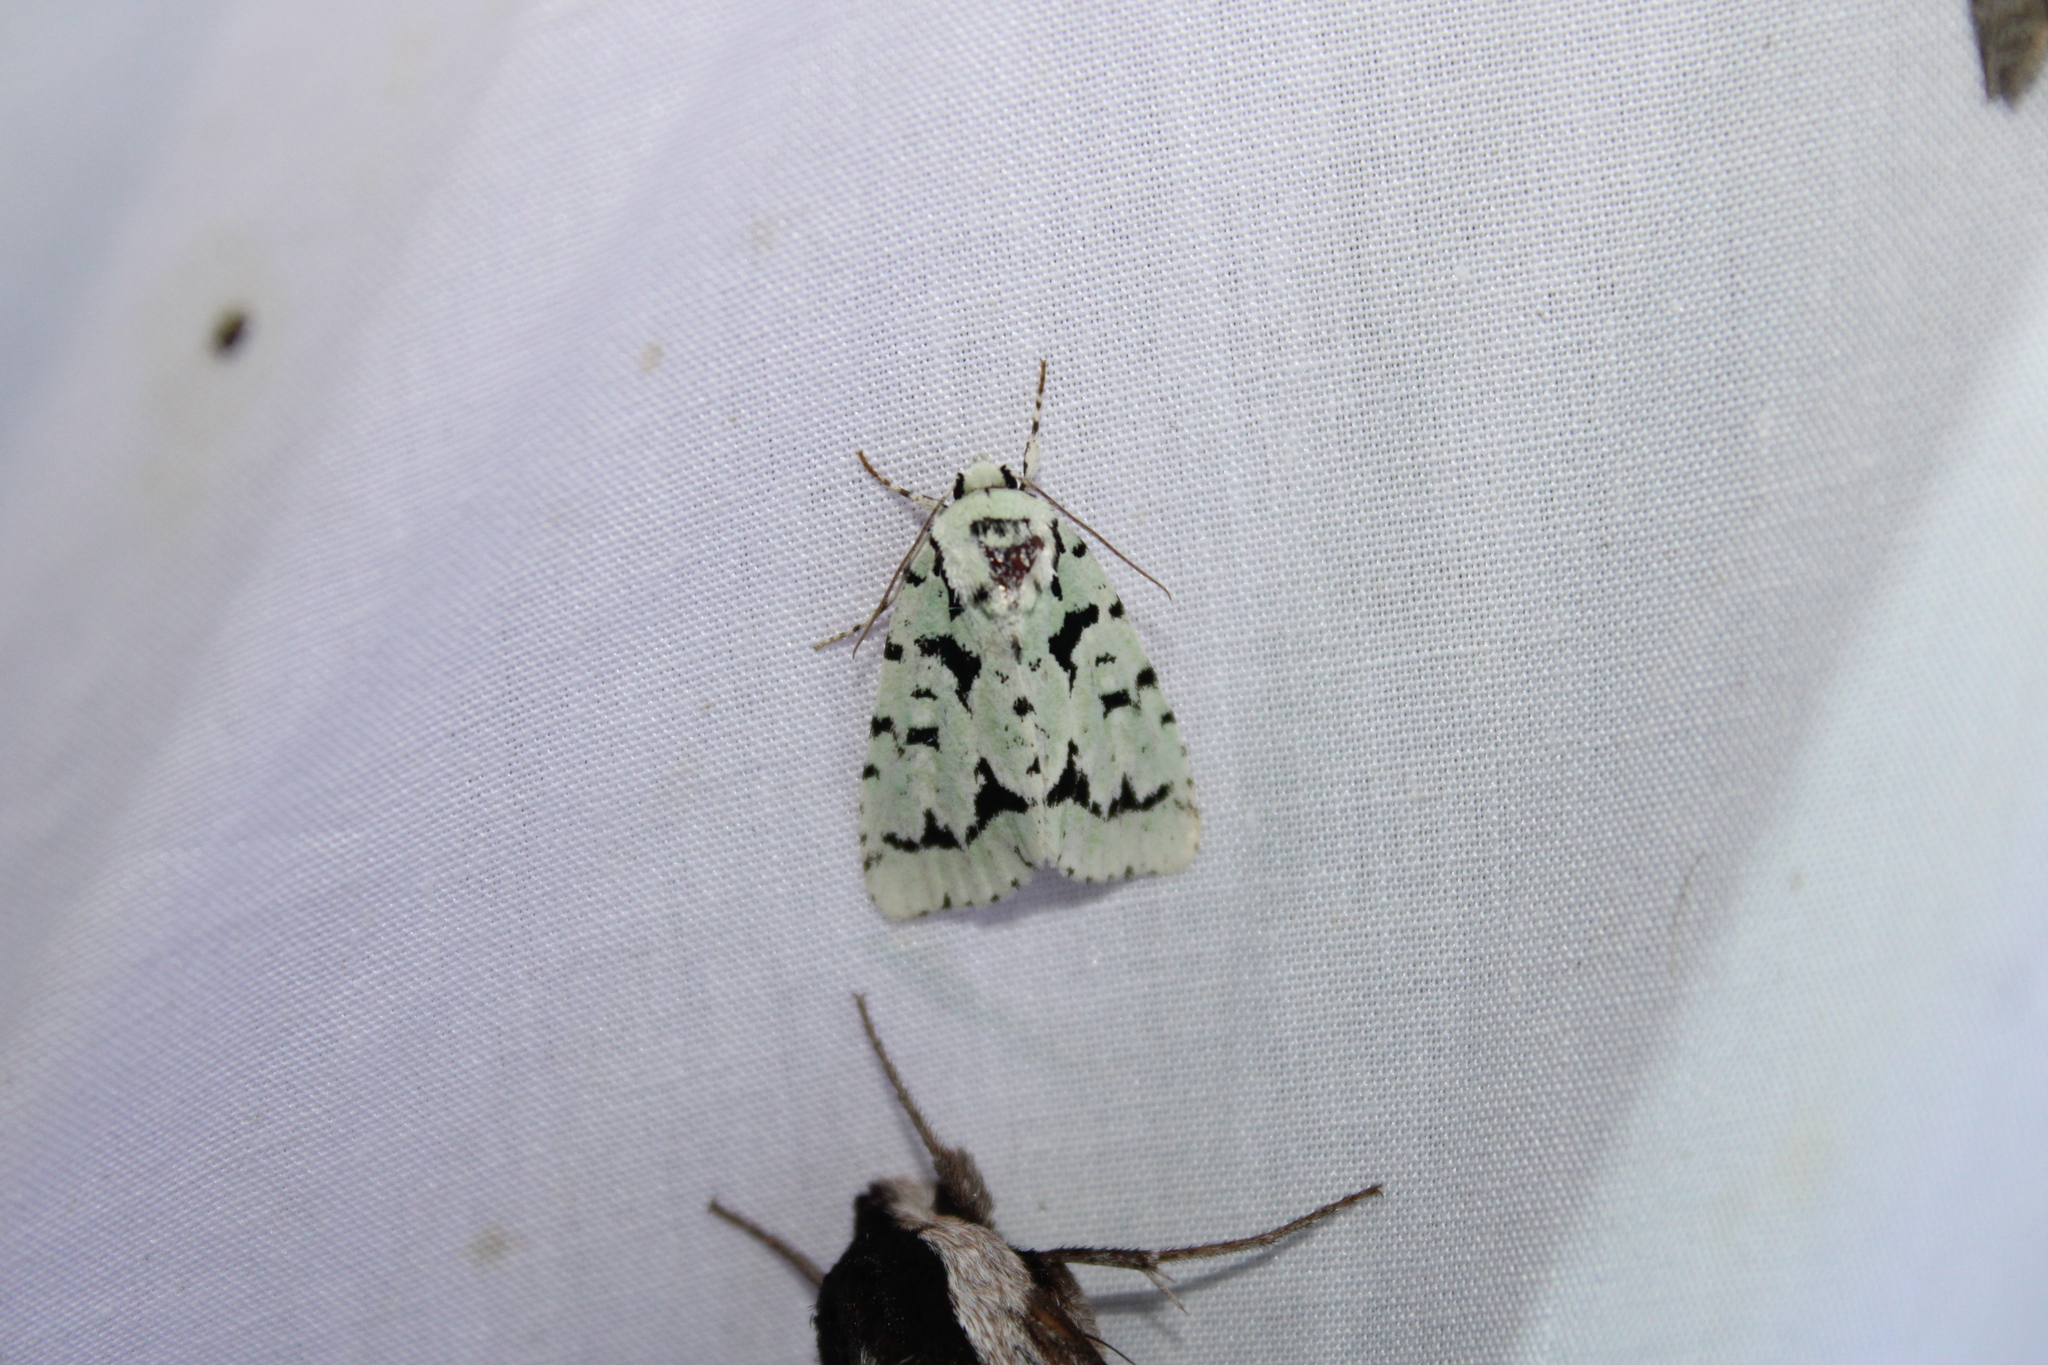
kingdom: Animalia
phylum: Arthropoda
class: Insecta
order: Lepidoptera
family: Noctuidae
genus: Acronicta
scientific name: Acronicta fallax
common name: Green marvel
